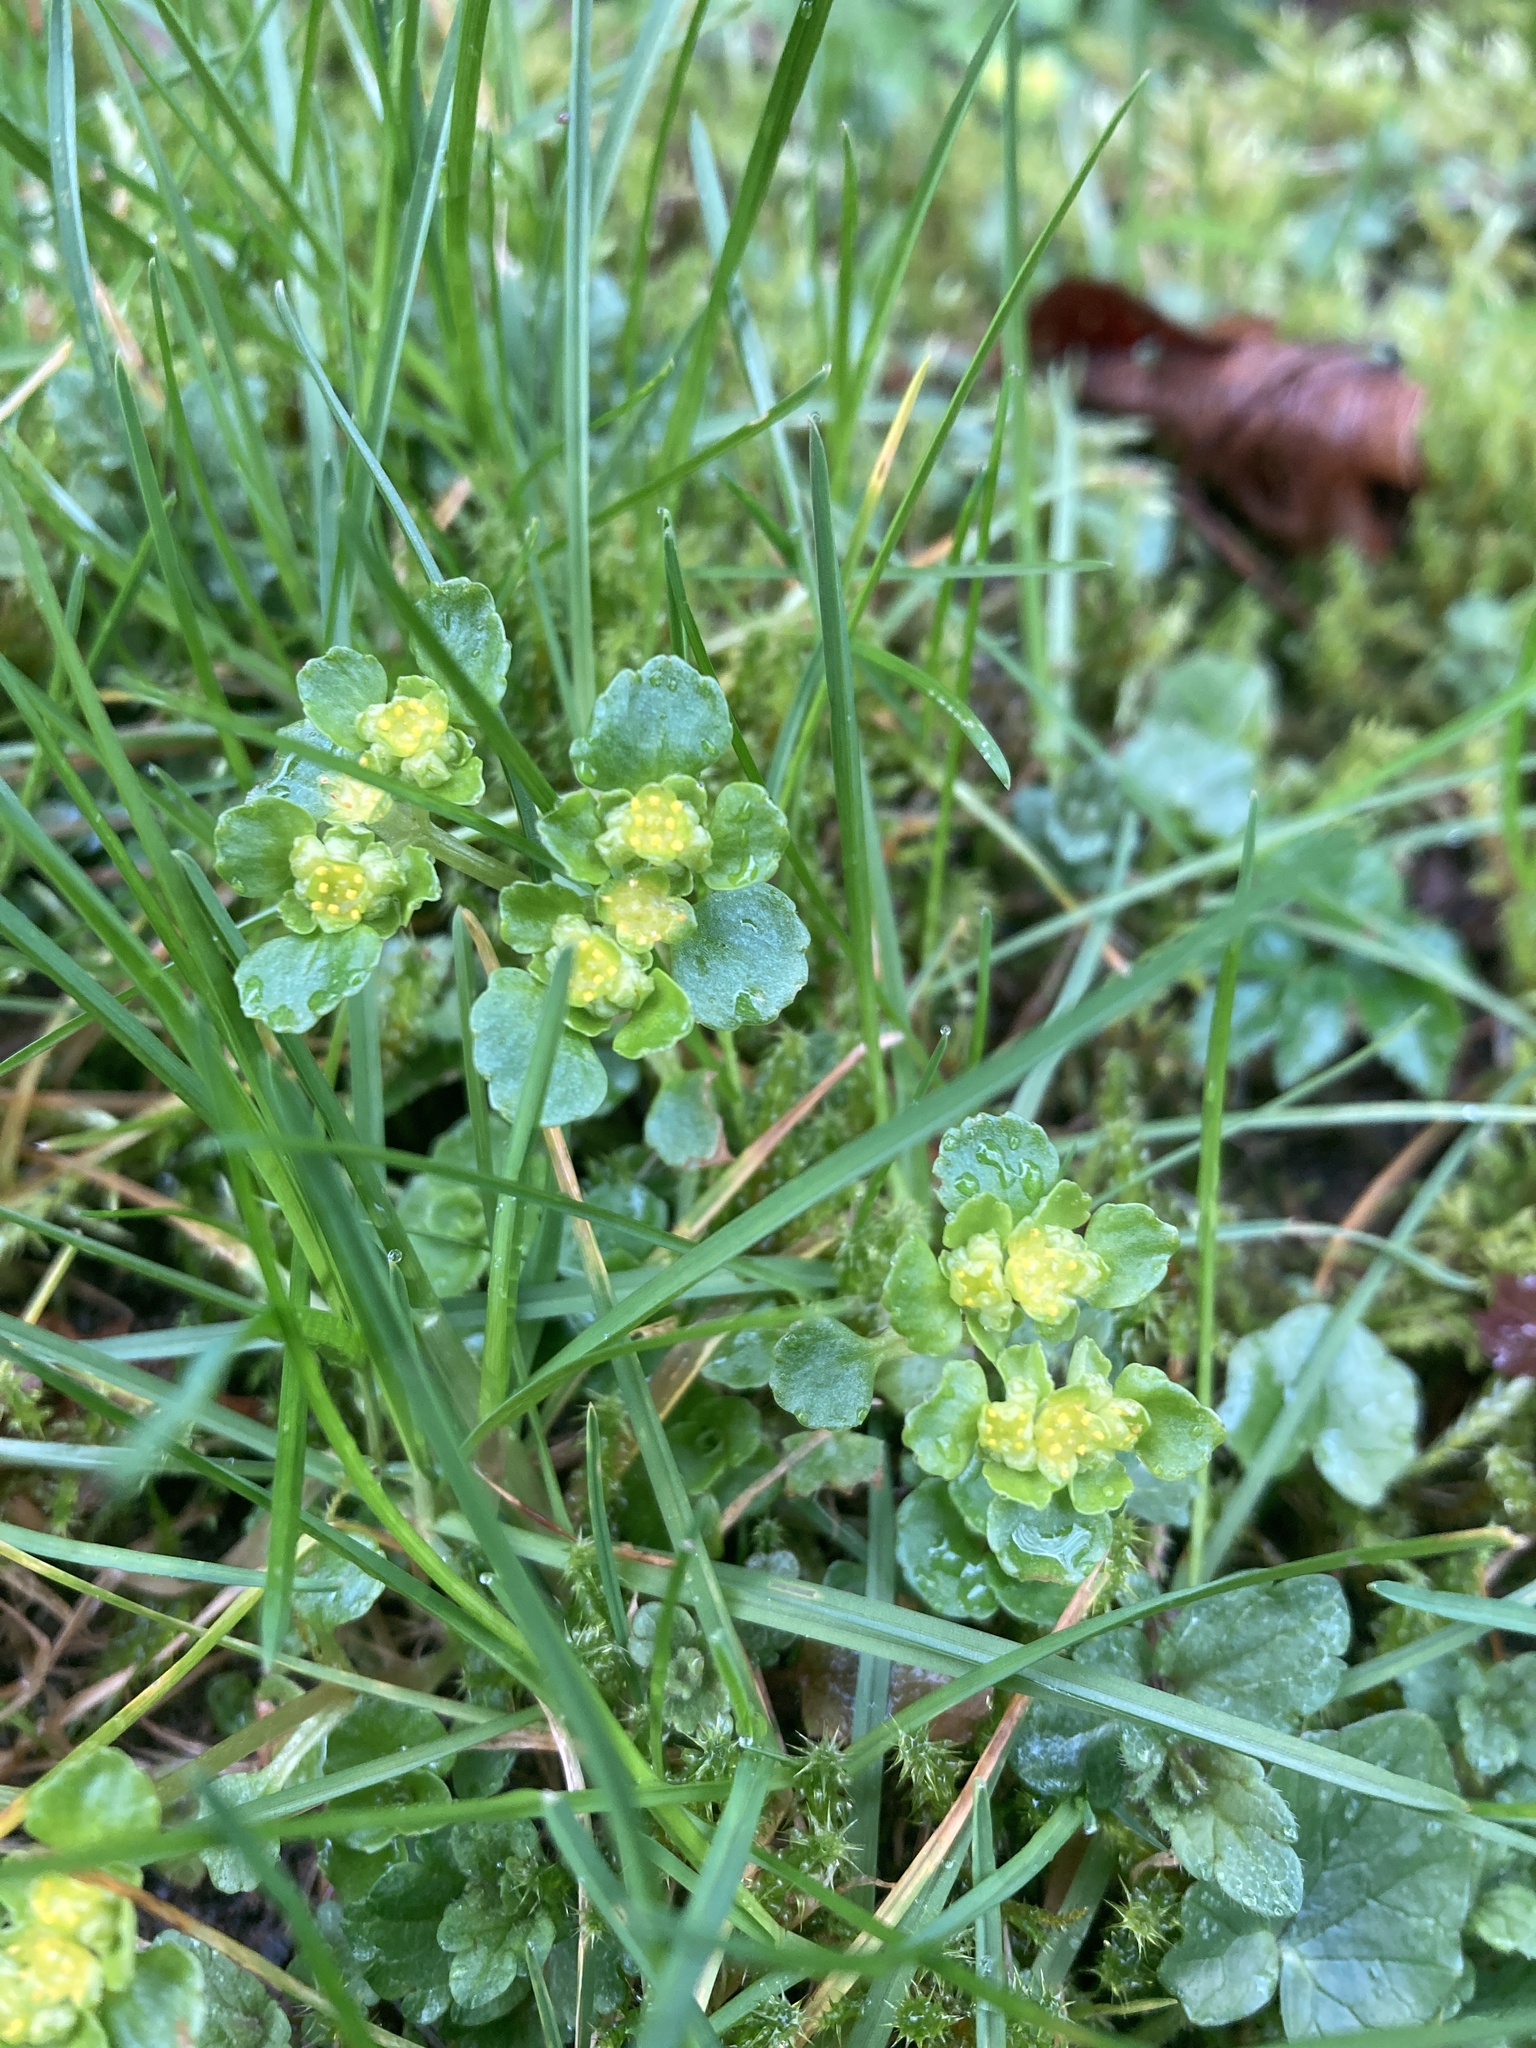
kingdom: Plantae
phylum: Tracheophyta
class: Magnoliopsida
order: Saxifragales
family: Saxifragaceae
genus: Chrysosplenium
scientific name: Chrysosplenium oppositifolium
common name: Opposite-leaved golden-saxifrage
